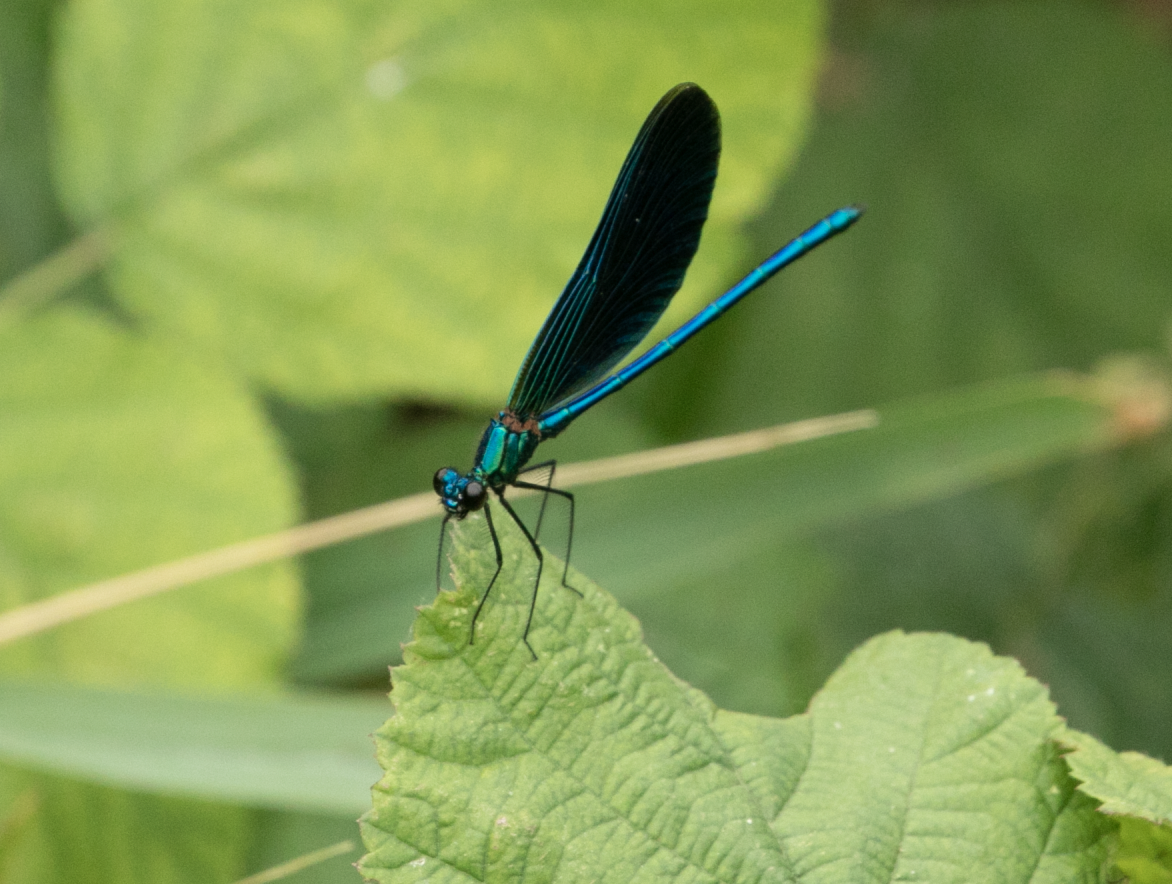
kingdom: Animalia
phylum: Arthropoda
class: Insecta
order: Odonata
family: Calopterygidae
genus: Calopteryx
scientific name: Calopteryx virgo
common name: Beautiful demoiselle
